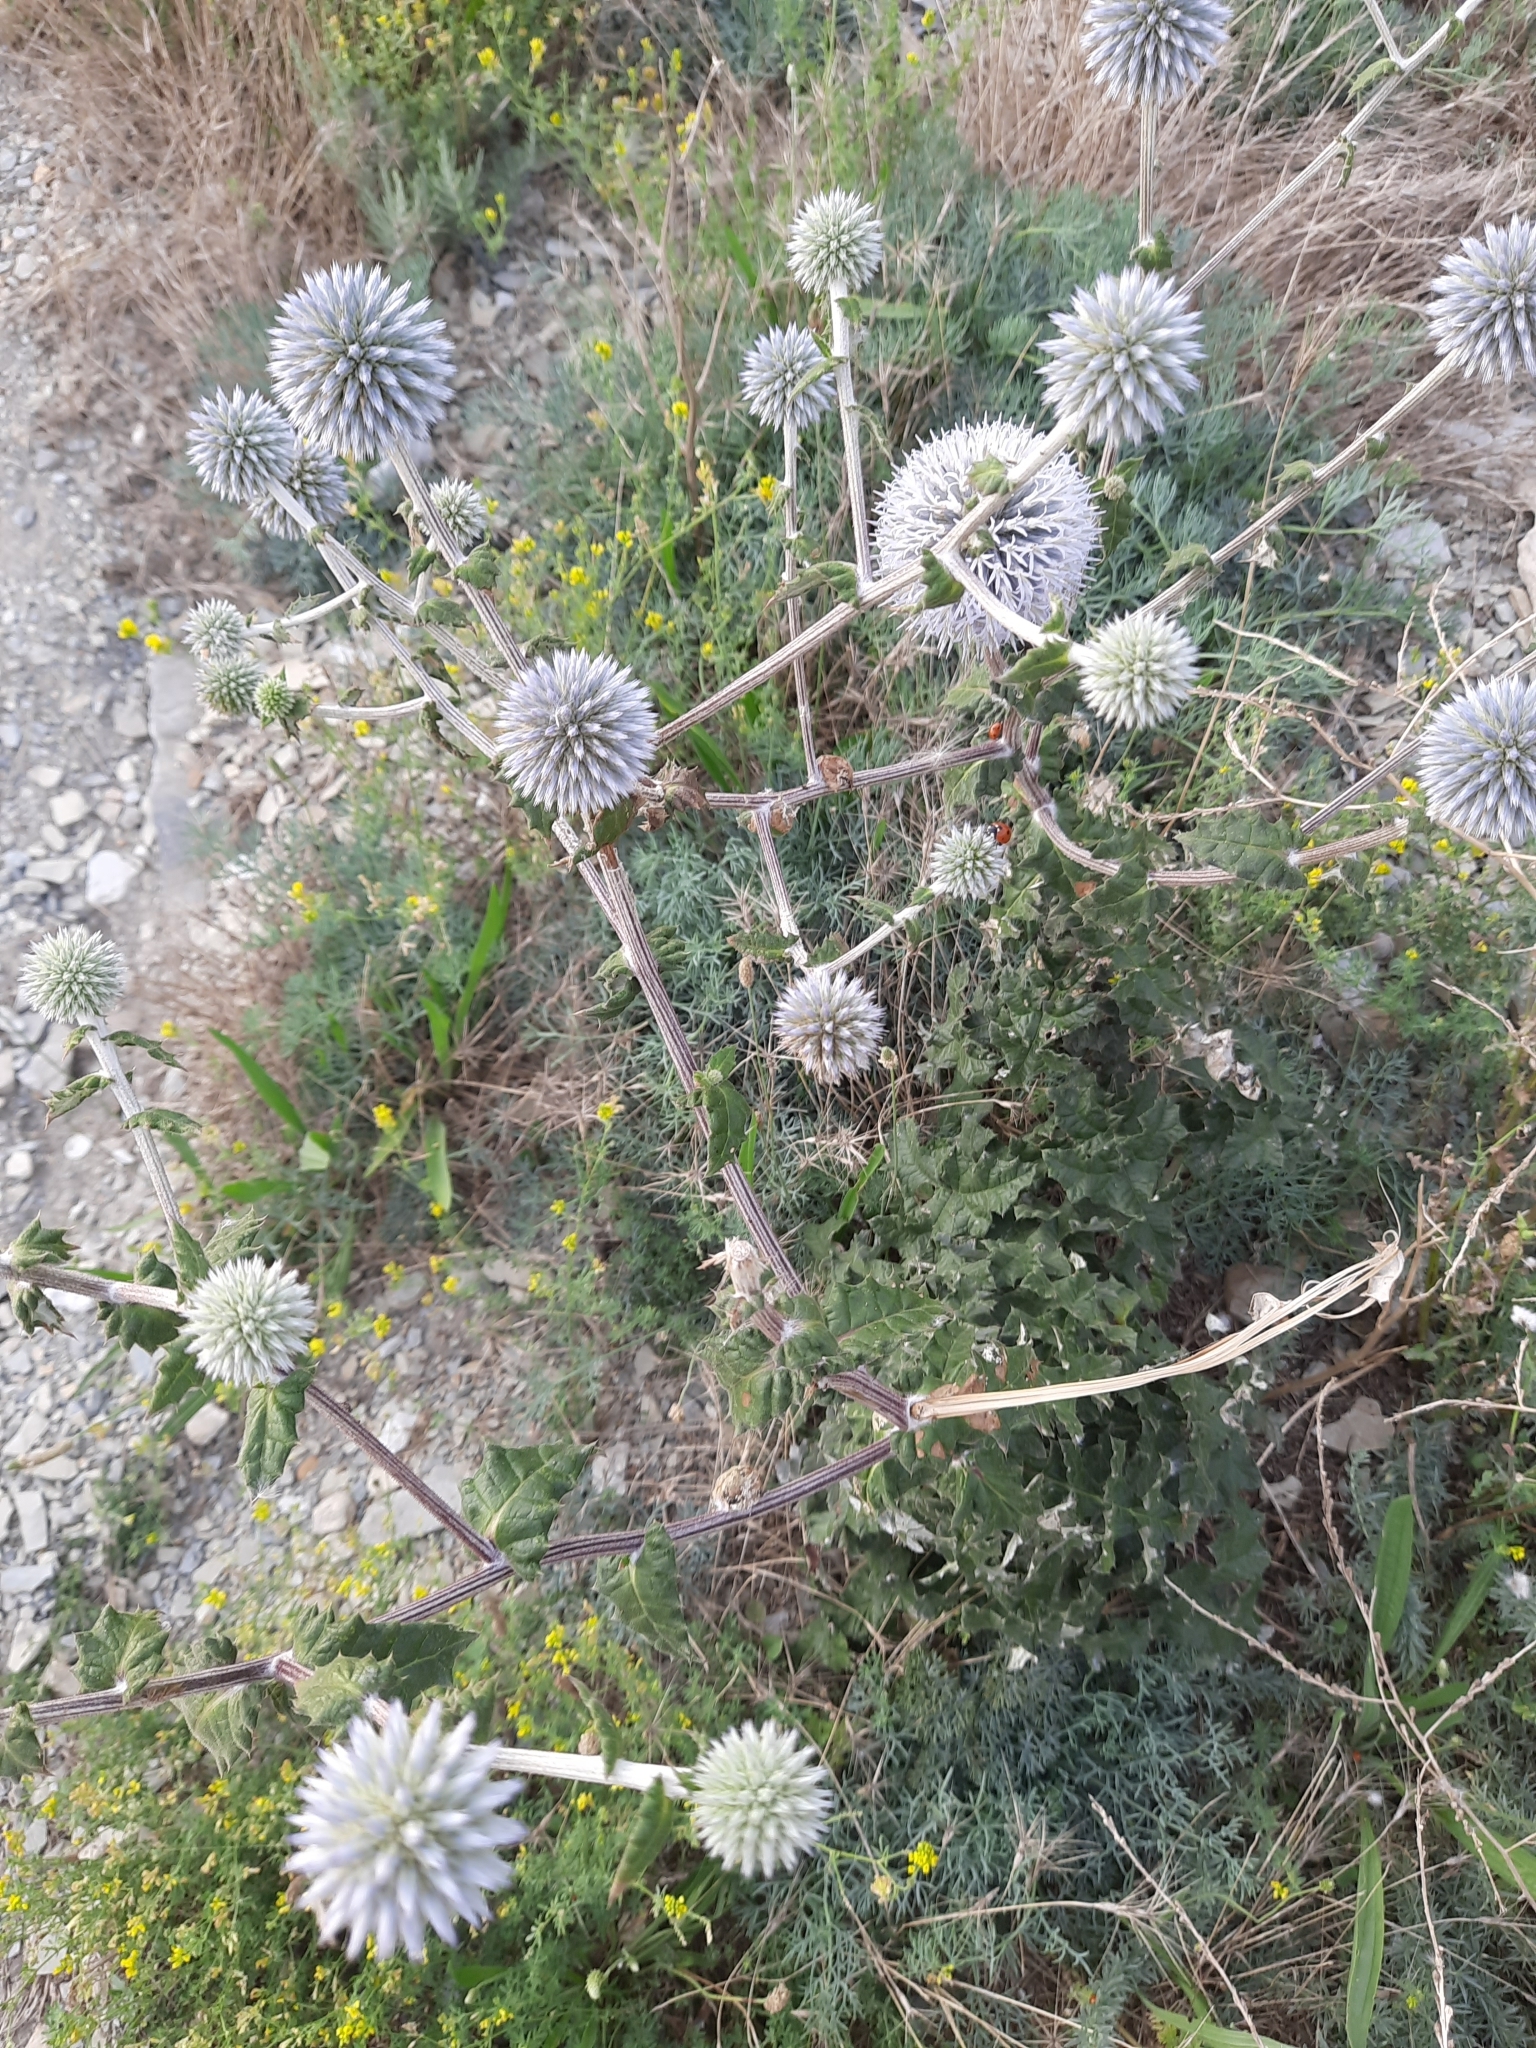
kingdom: Plantae
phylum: Tracheophyta
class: Magnoliopsida
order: Asterales
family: Asteraceae
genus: Echinops
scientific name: Echinops sphaerocephalus
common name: Glandular globe-thistle
